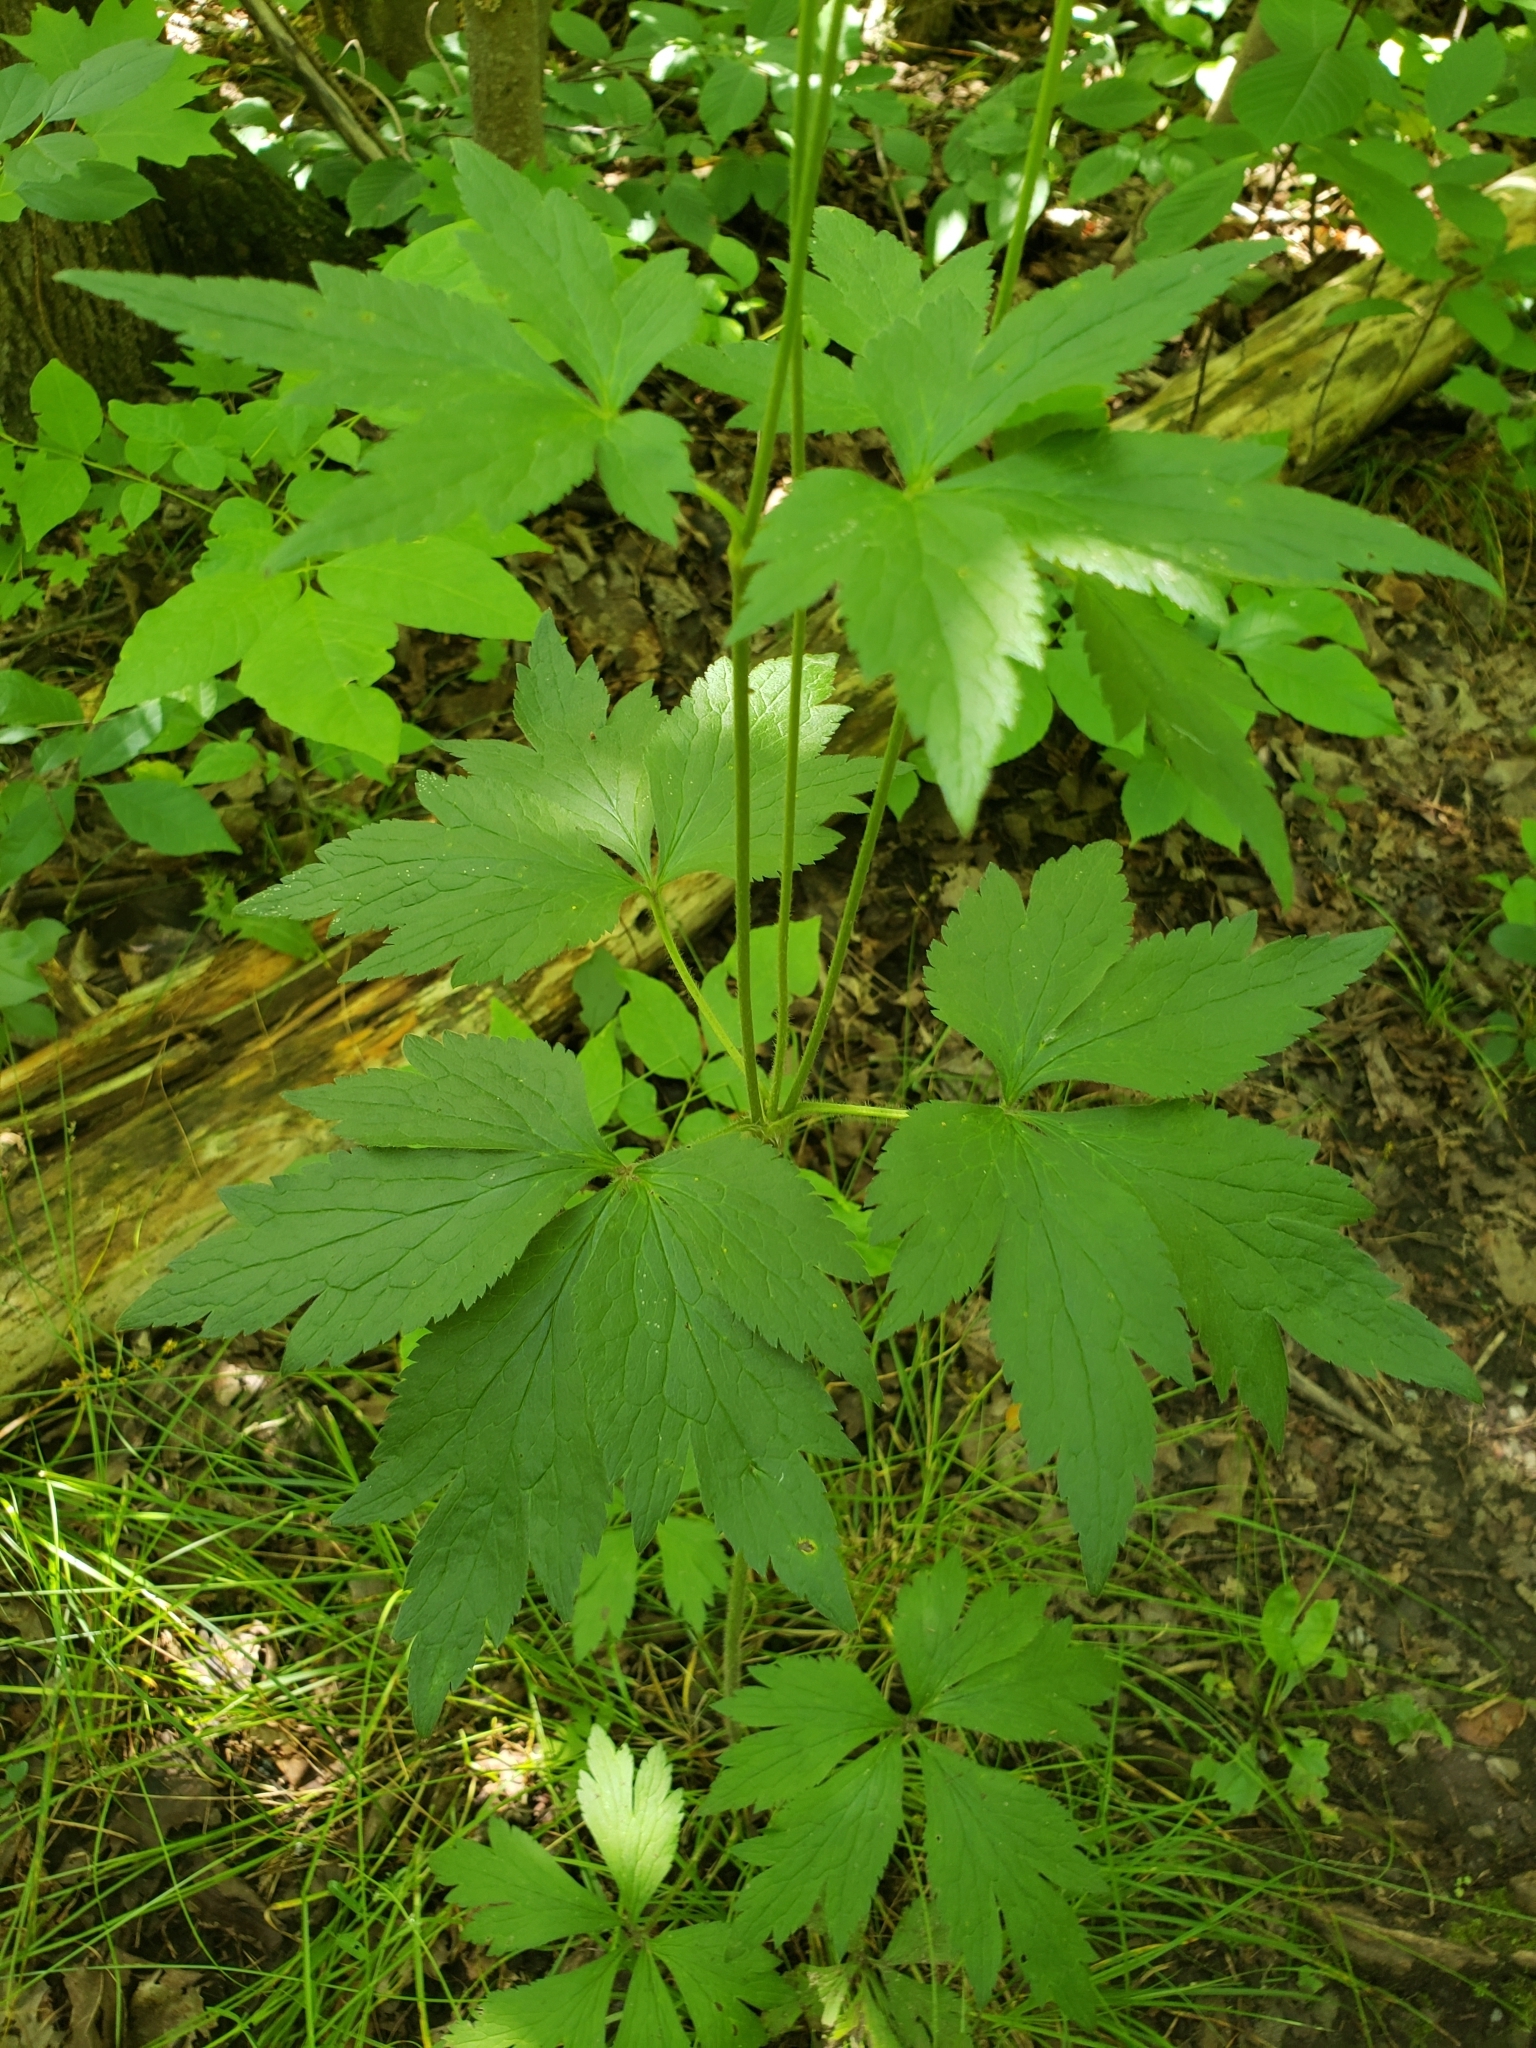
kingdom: Plantae
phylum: Tracheophyta
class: Magnoliopsida
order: Ranunculales
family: Ranunculaceae
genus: Anemone
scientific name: Anemone virginiana
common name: Tall anemone
